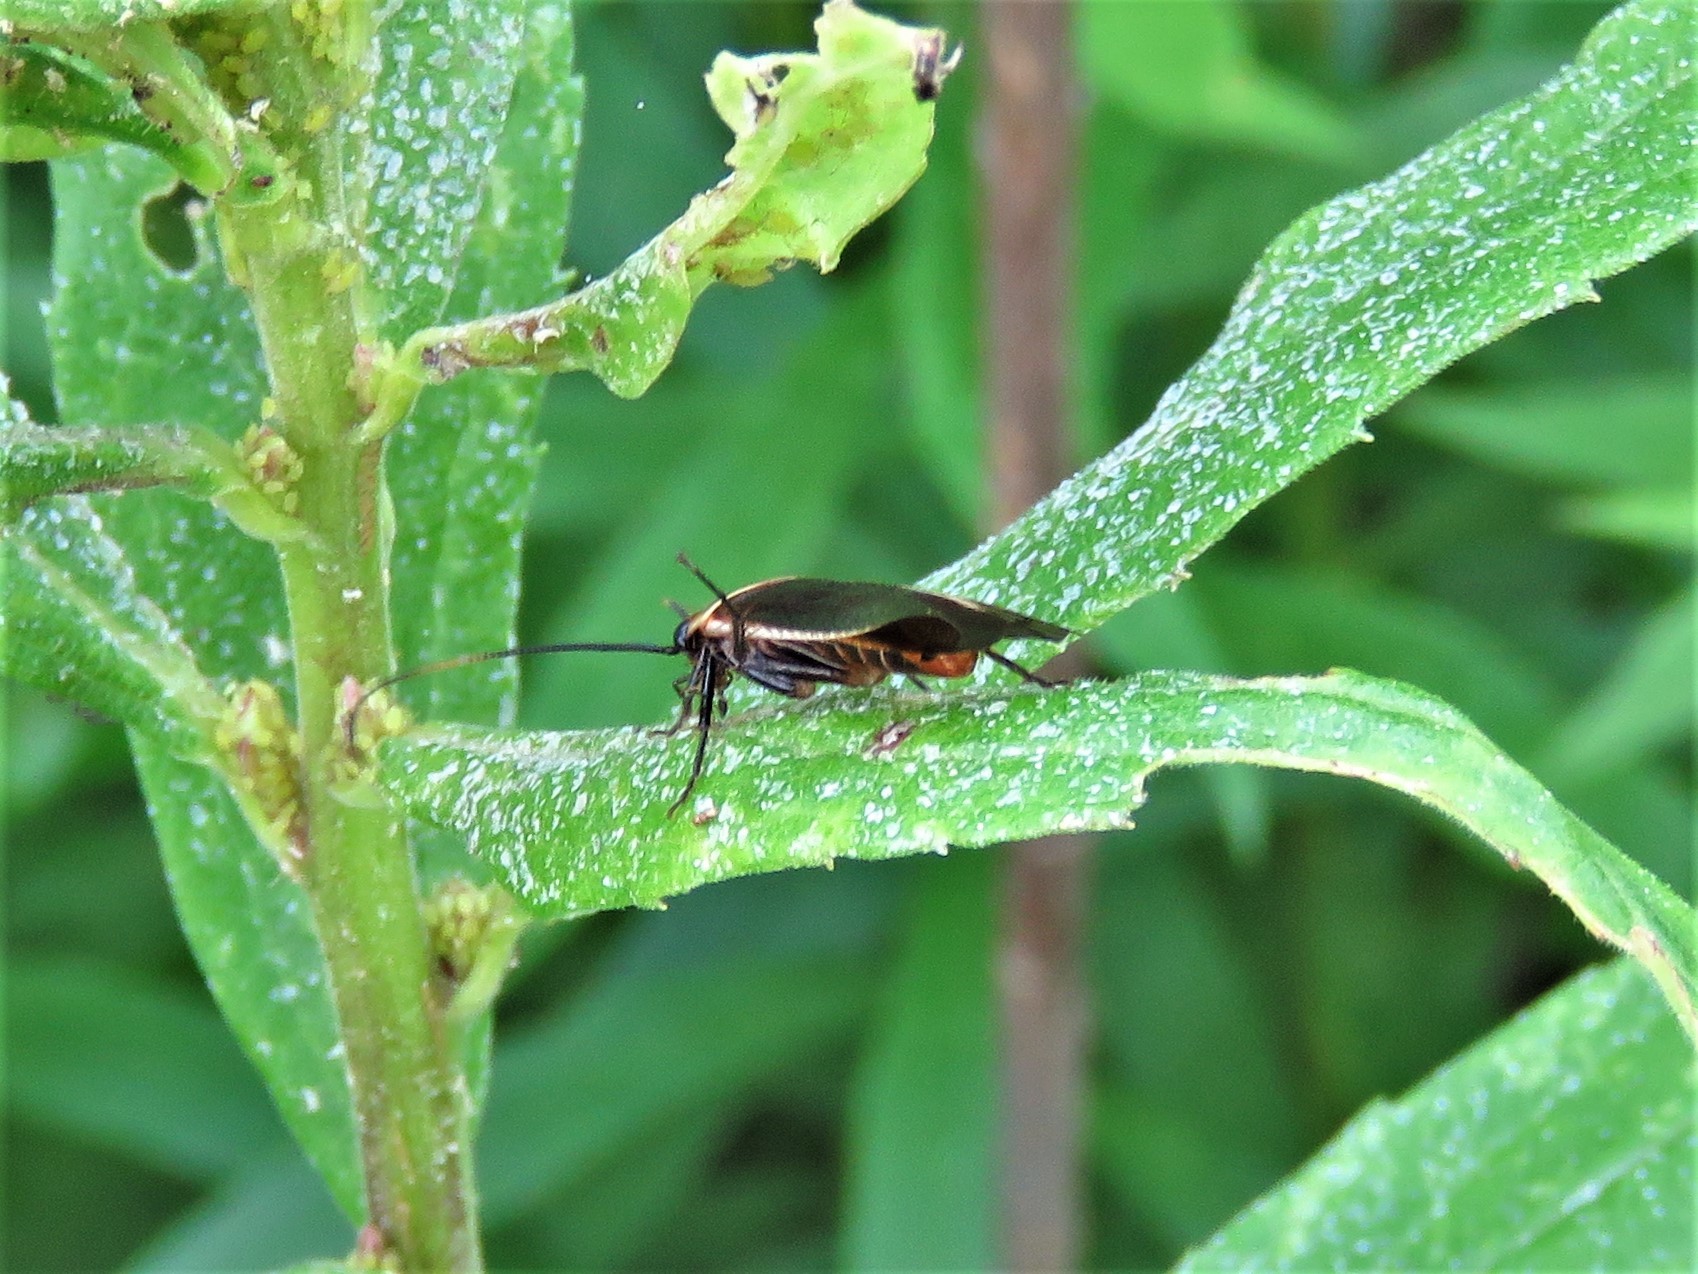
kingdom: Animalia
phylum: Arthropoda
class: Insecta
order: Blattodea
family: Ectobiidae
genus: Pseudomops
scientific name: Pseudomops septentrionalis
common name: Pale-bordered field cockroach
